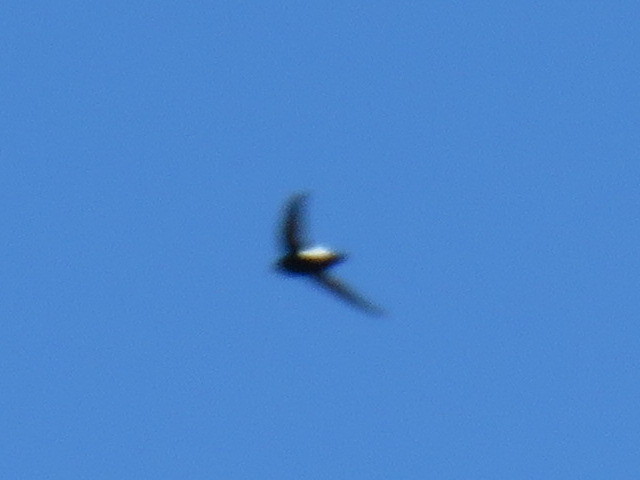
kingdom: Animalia
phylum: Chordata
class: Aves
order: Apodiformes
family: Apodidae
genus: Apus
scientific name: Apus affinis
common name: Little swift
